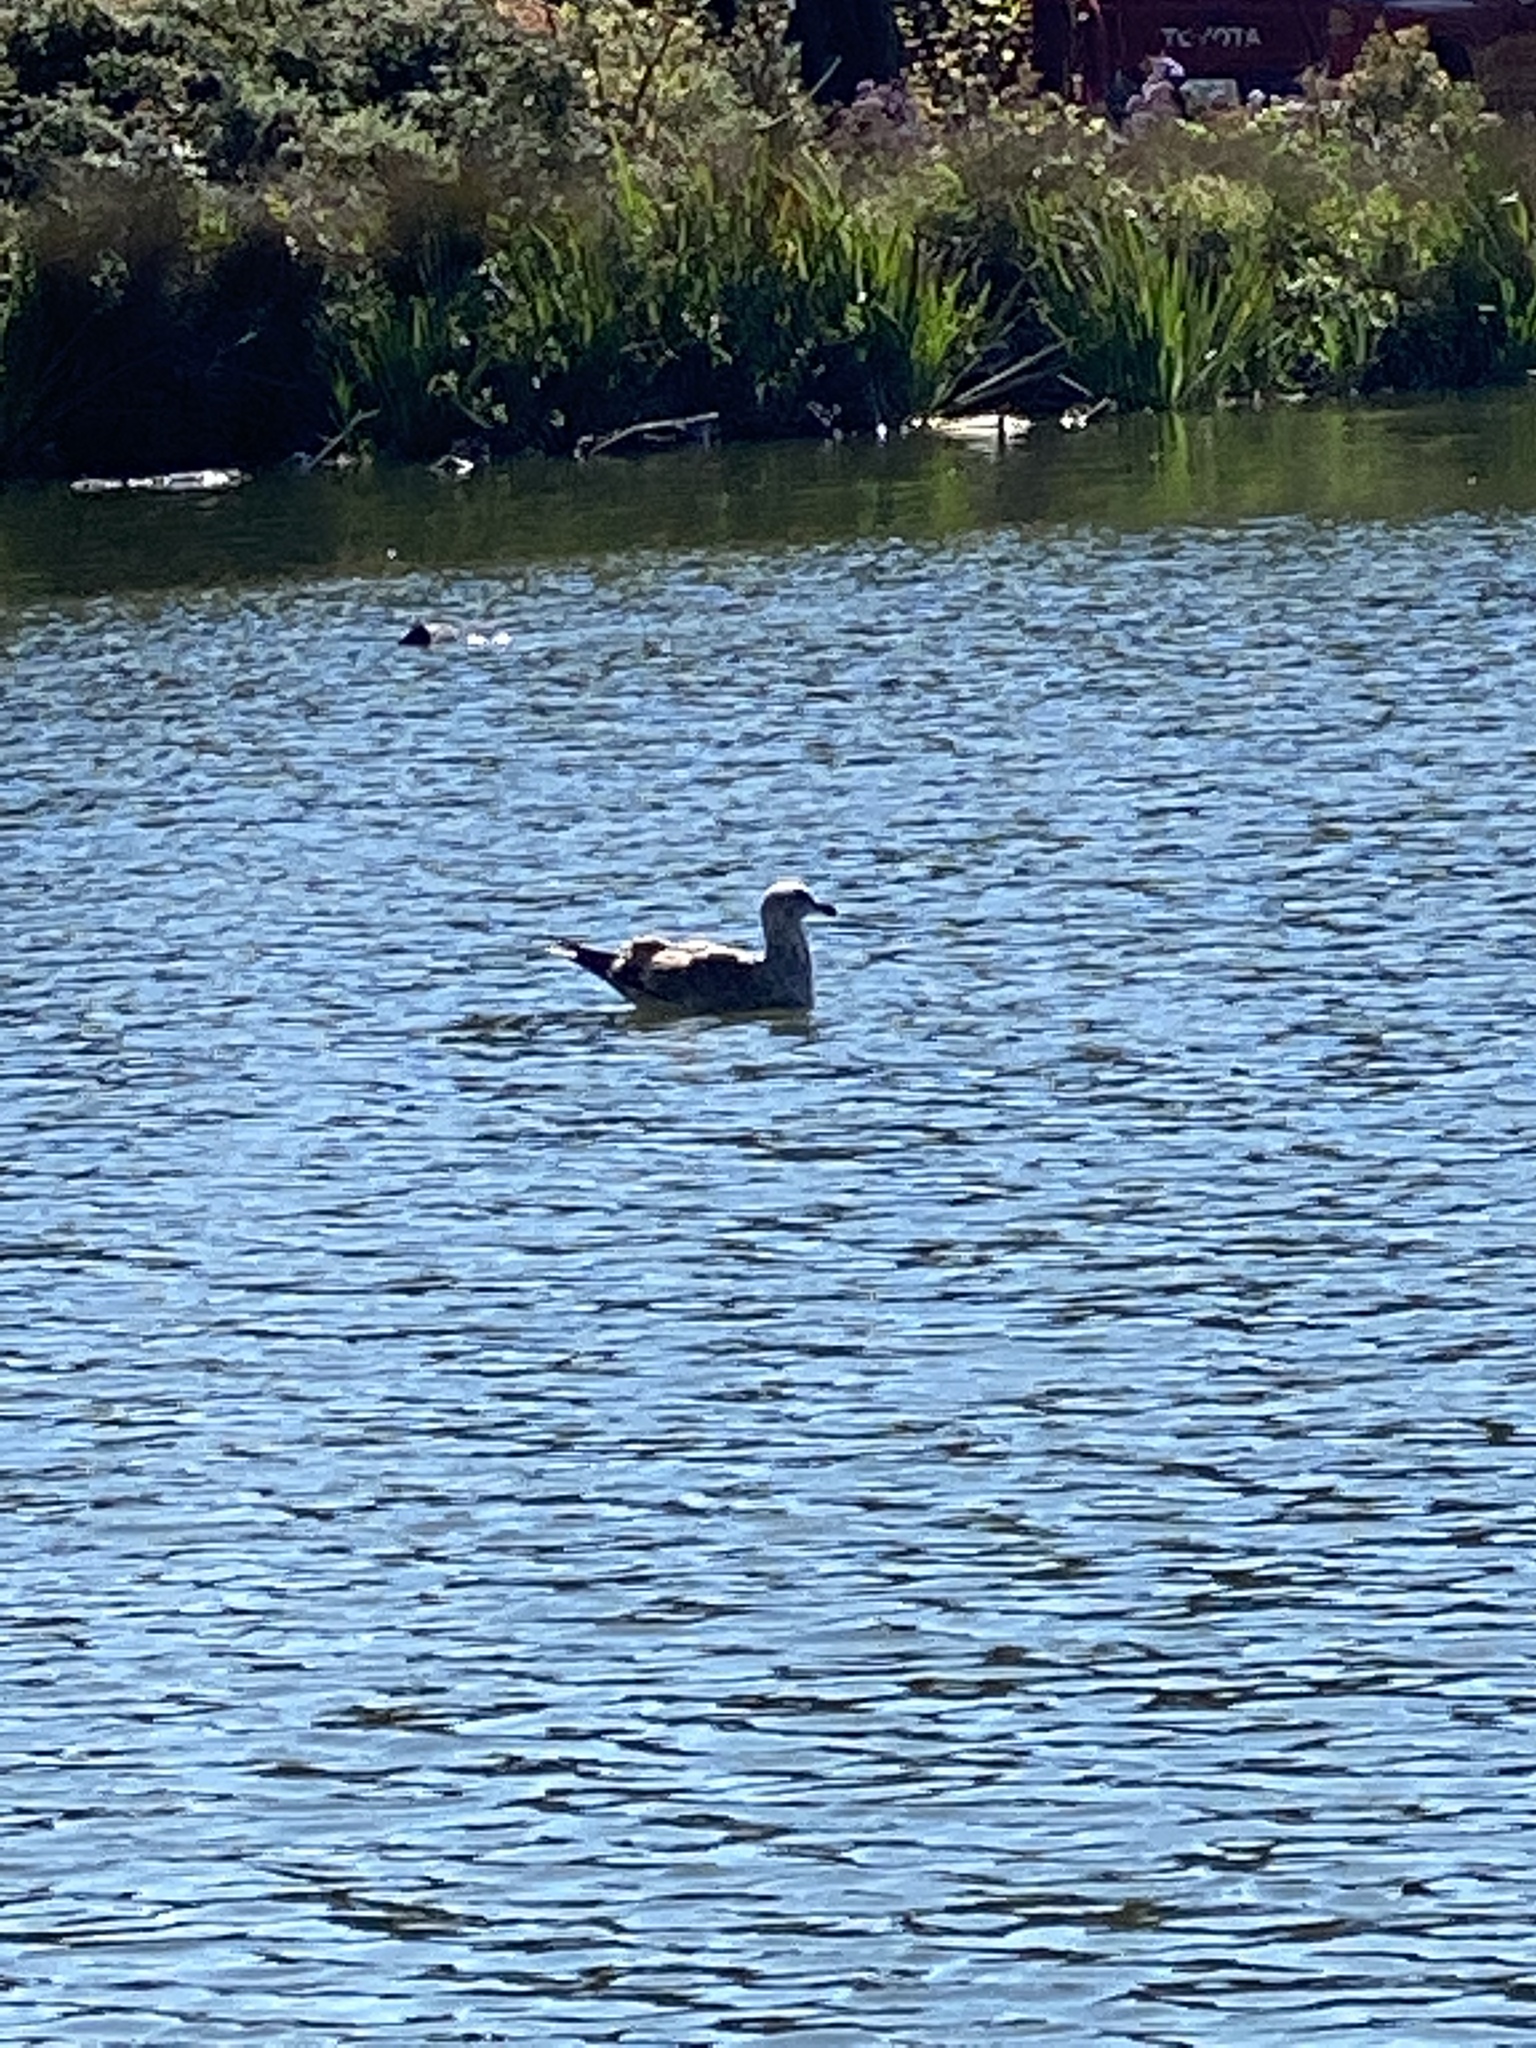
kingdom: Animalia
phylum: Chordata
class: Aves
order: Charadriiformes
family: Laridae
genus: Larus
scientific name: Larus
